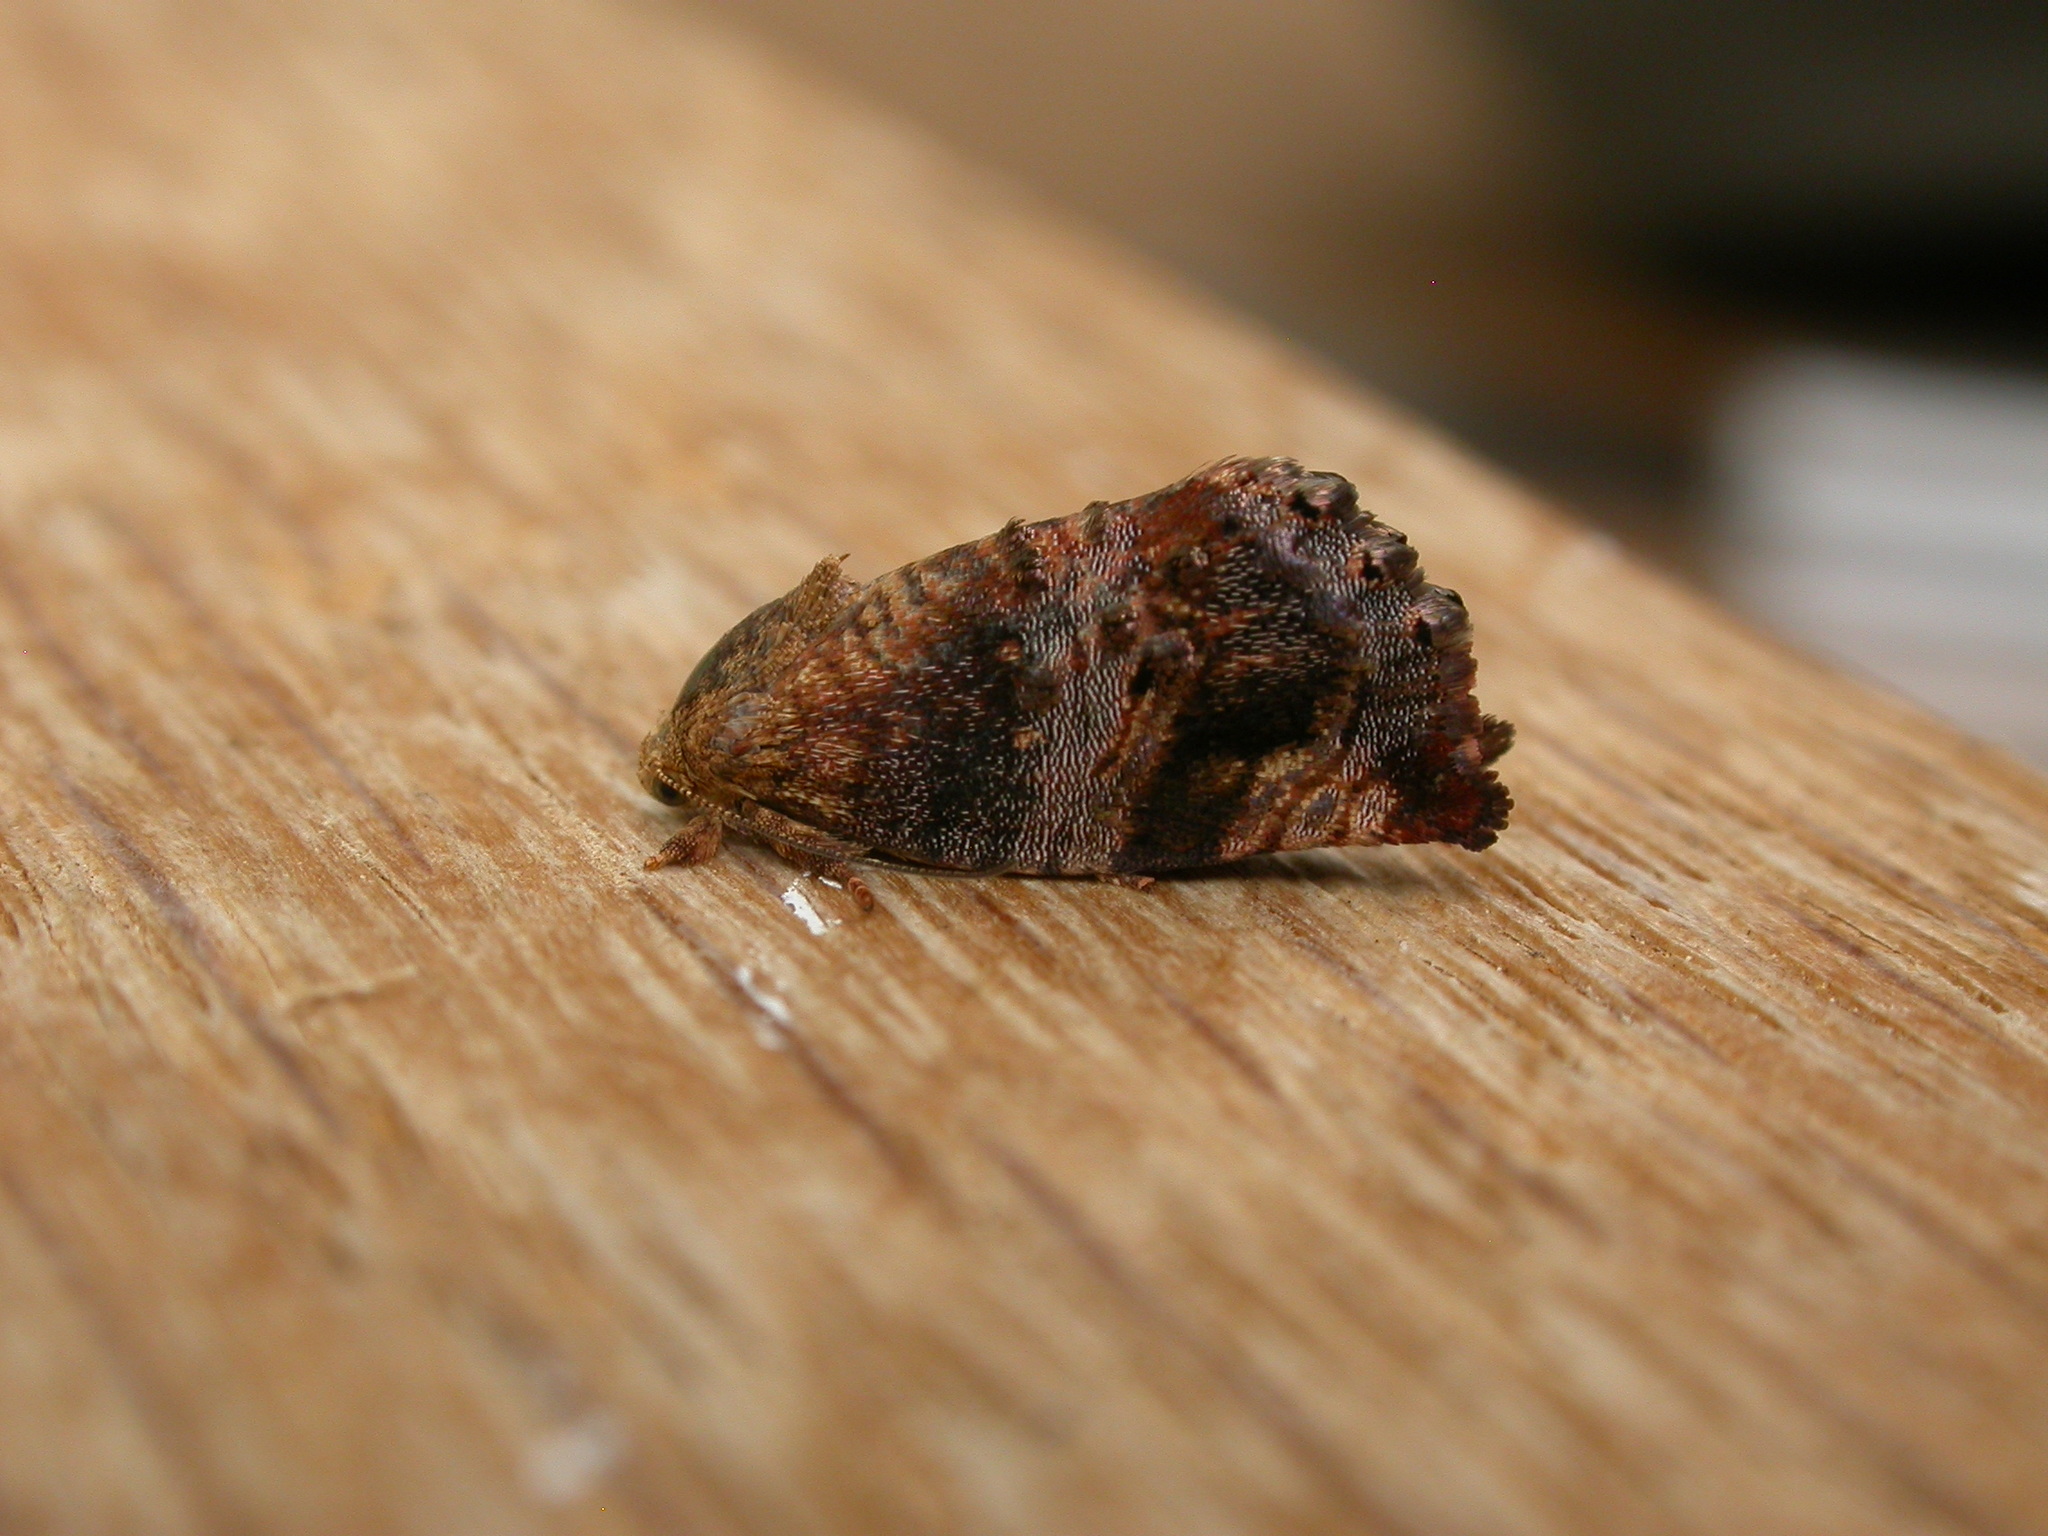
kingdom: Animalia
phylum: Arthropoda
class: Insecta
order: Lepidoptera
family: Depressariidae
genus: Peritropha
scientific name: Peritropha oligodrachma
